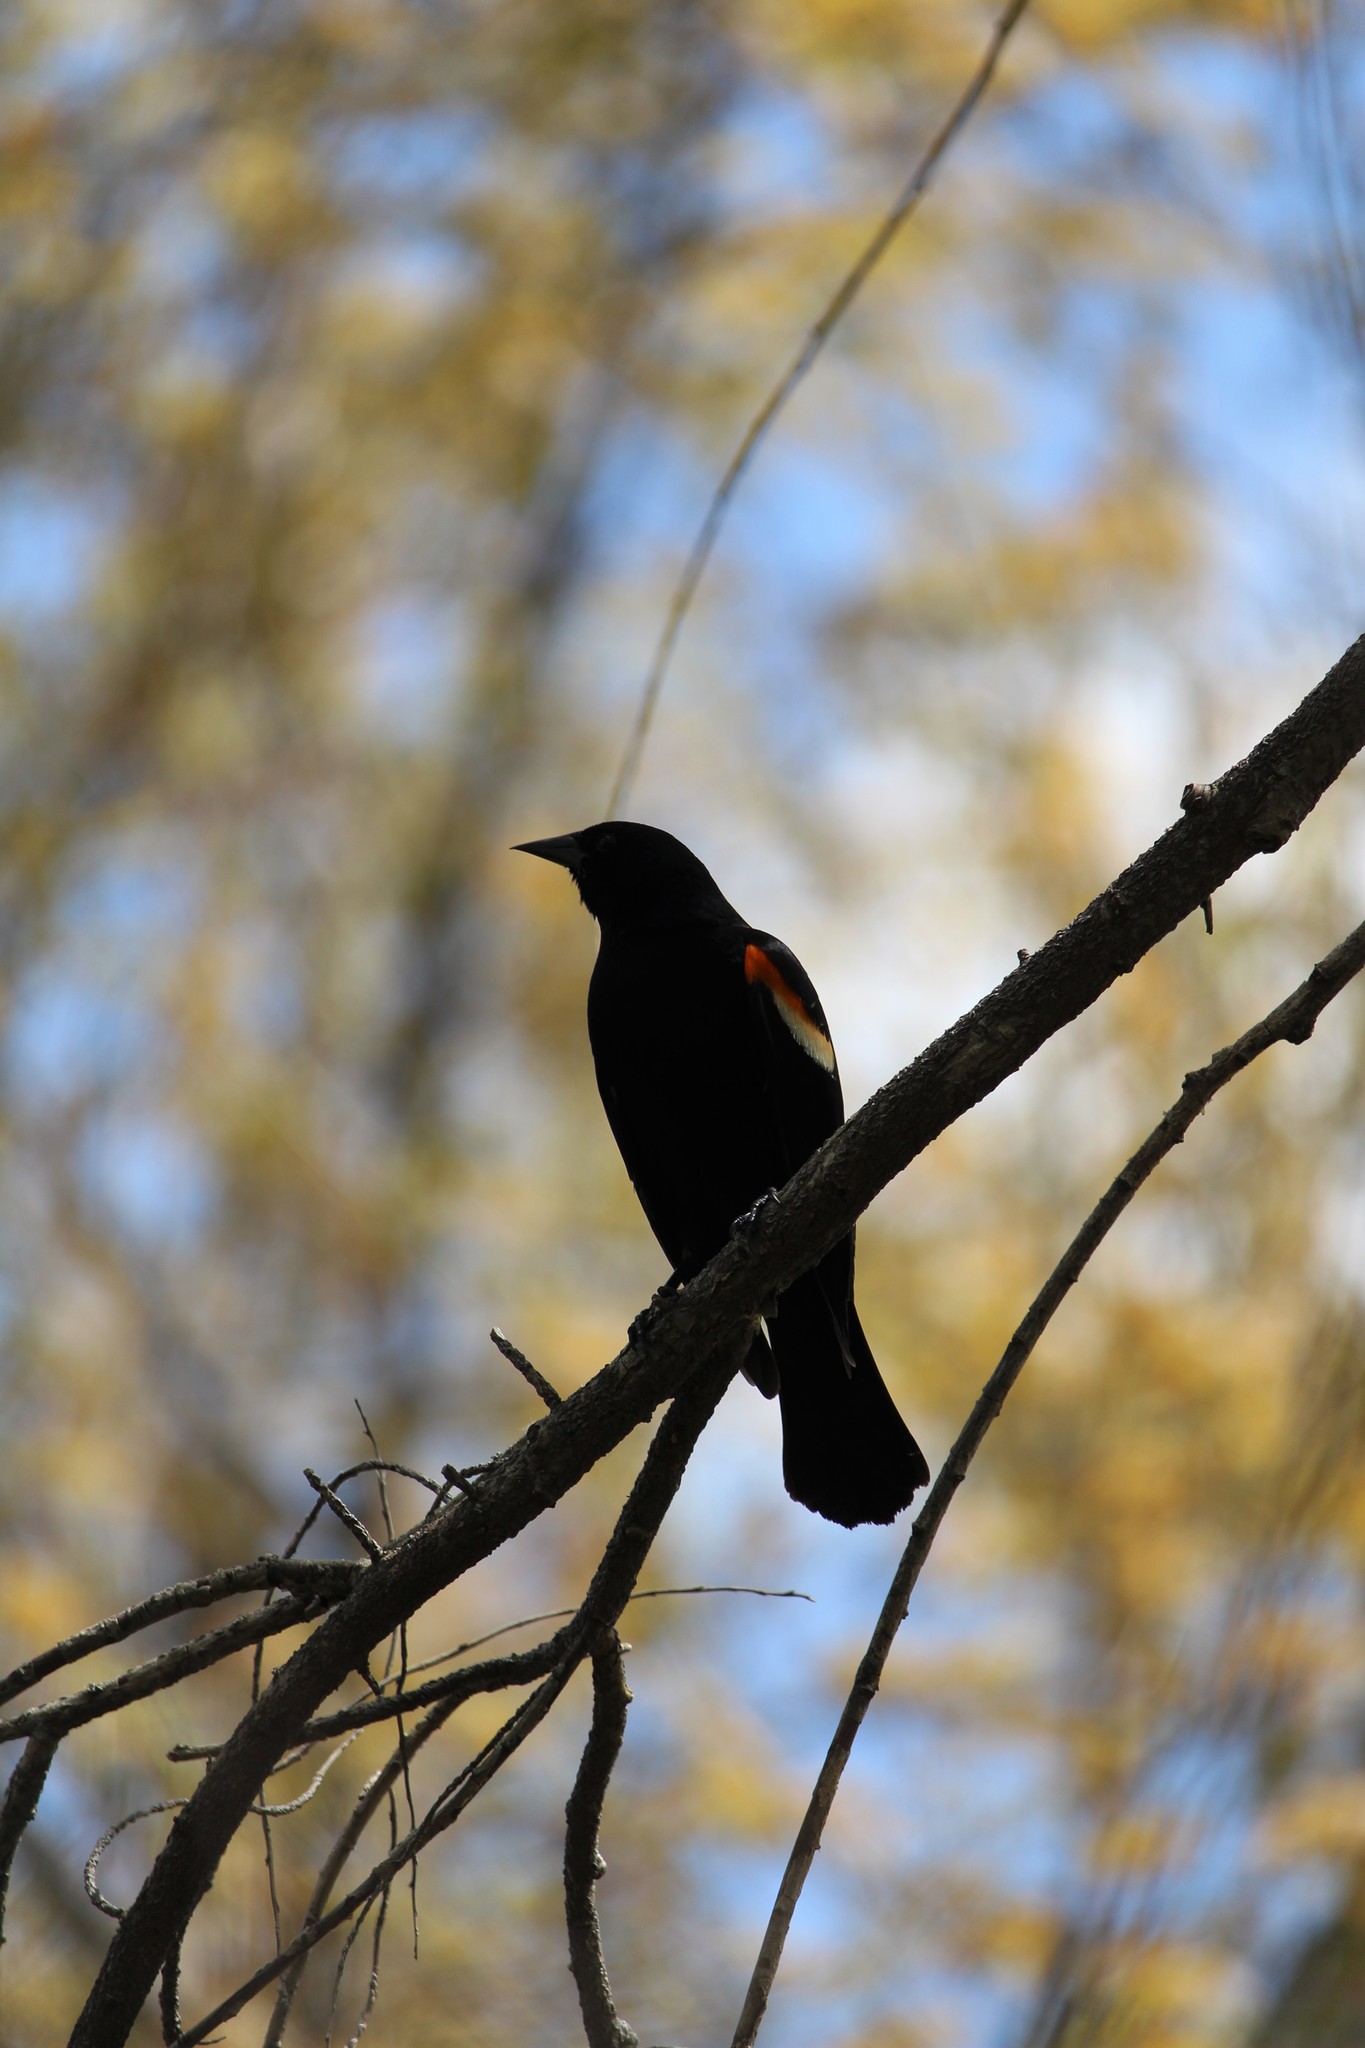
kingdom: Animalia
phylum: Chordata
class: Aves
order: Passeriformes
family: Icteridae
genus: Agelaius
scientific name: Agelaius phoeniceus
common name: Red-winged blackbird
